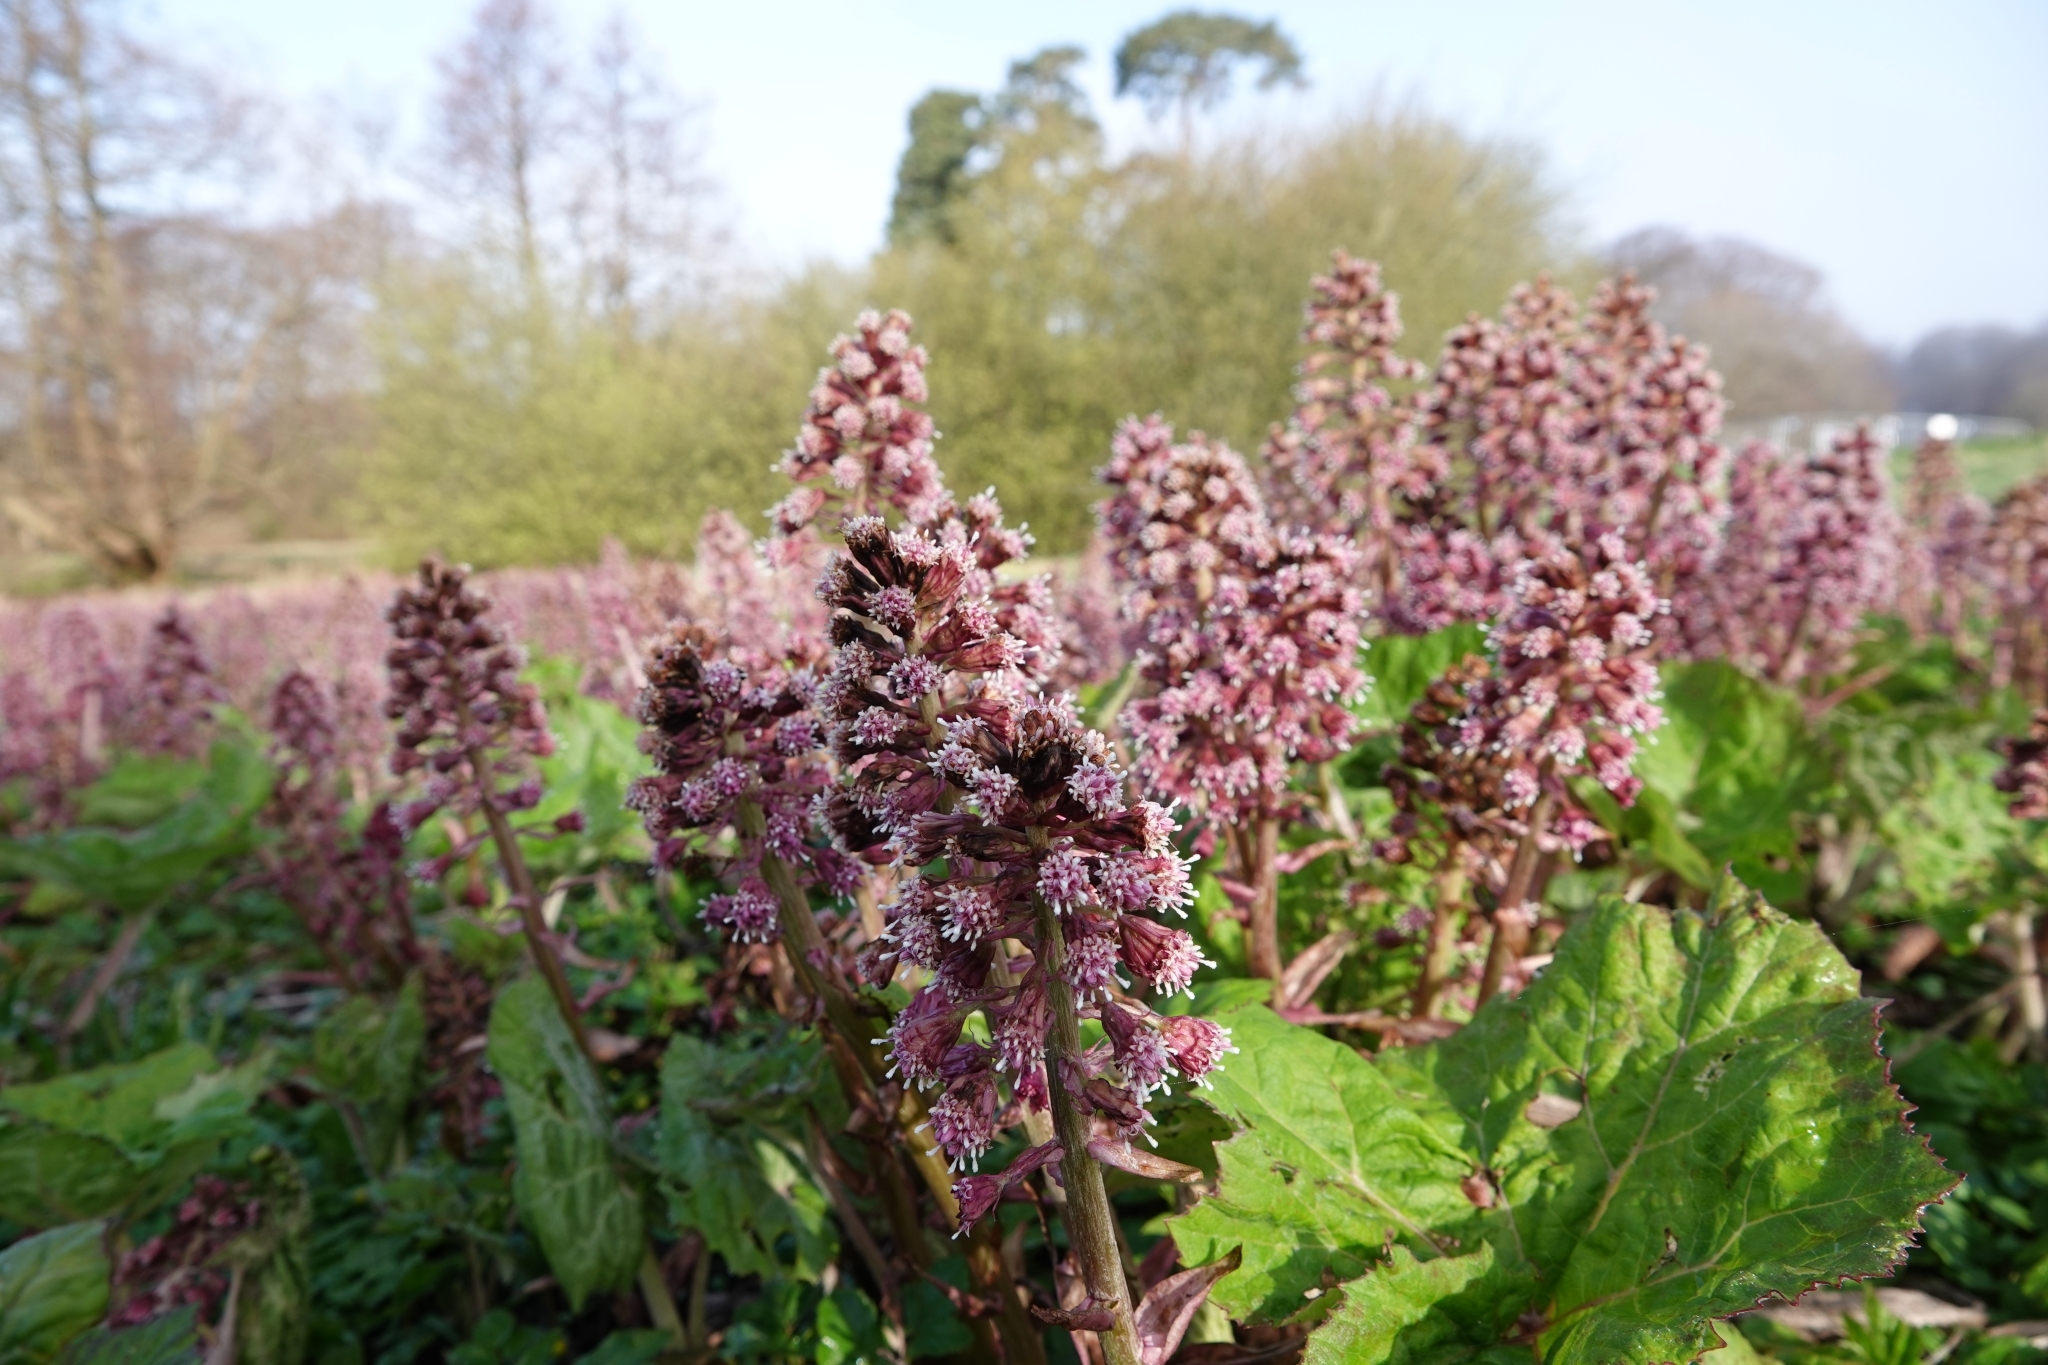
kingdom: Plantae
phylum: Tracheophyta
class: Magnoliopsida
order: Asterales
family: Asteraceae
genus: Petasites
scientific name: Petasites hybridus
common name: Butterbur
